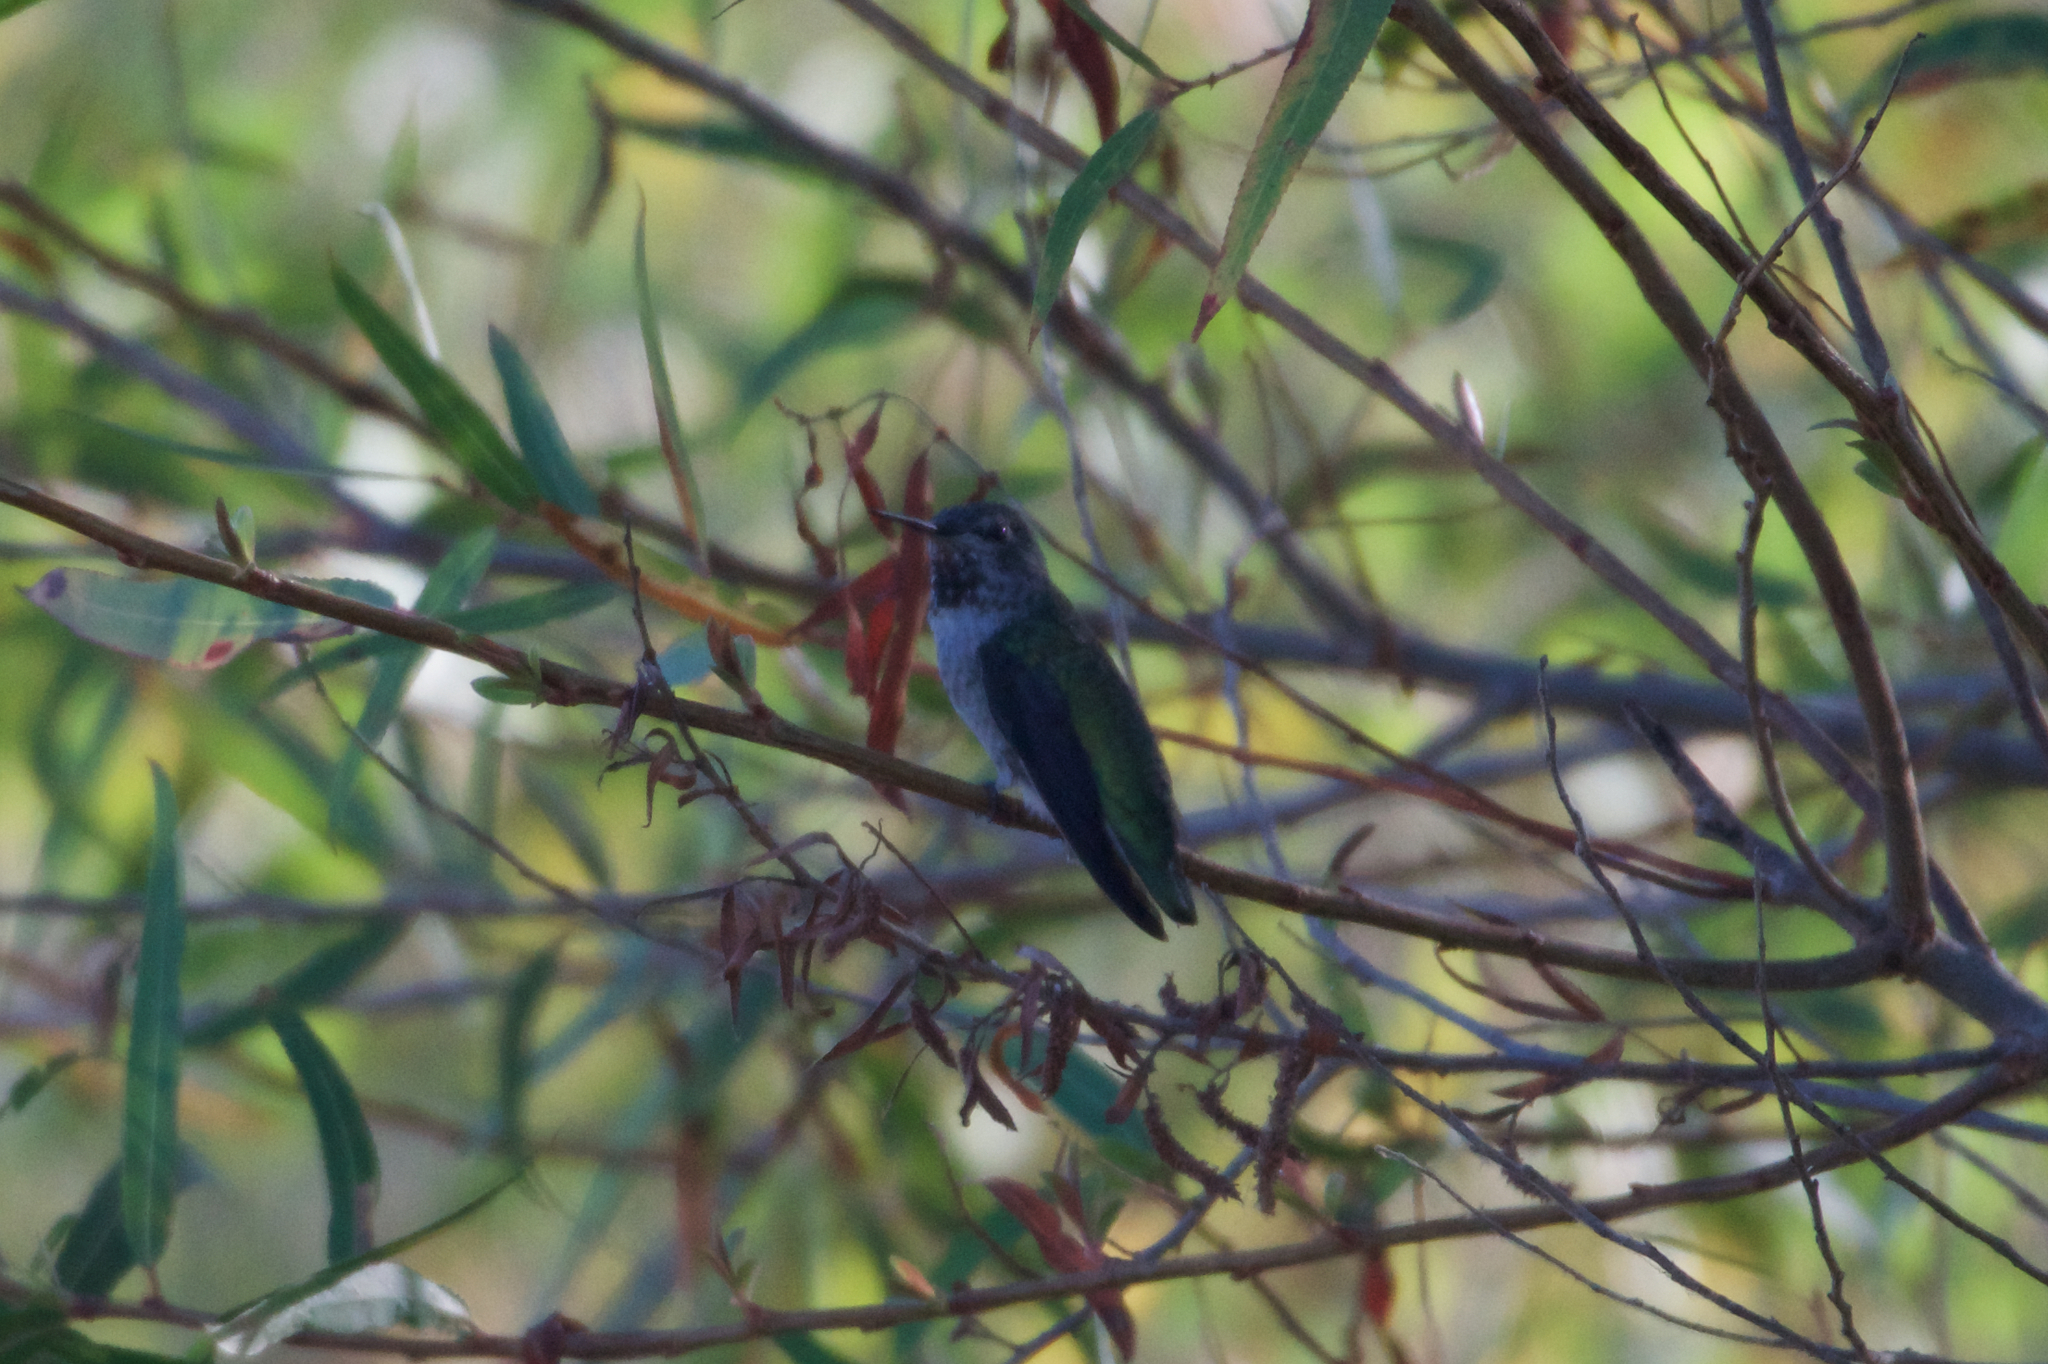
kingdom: Animalia
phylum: Chordata
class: Aves
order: Apodiformes
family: Trochilidae
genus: Calypte
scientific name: Calypte anna
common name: Anna's hummingbird
